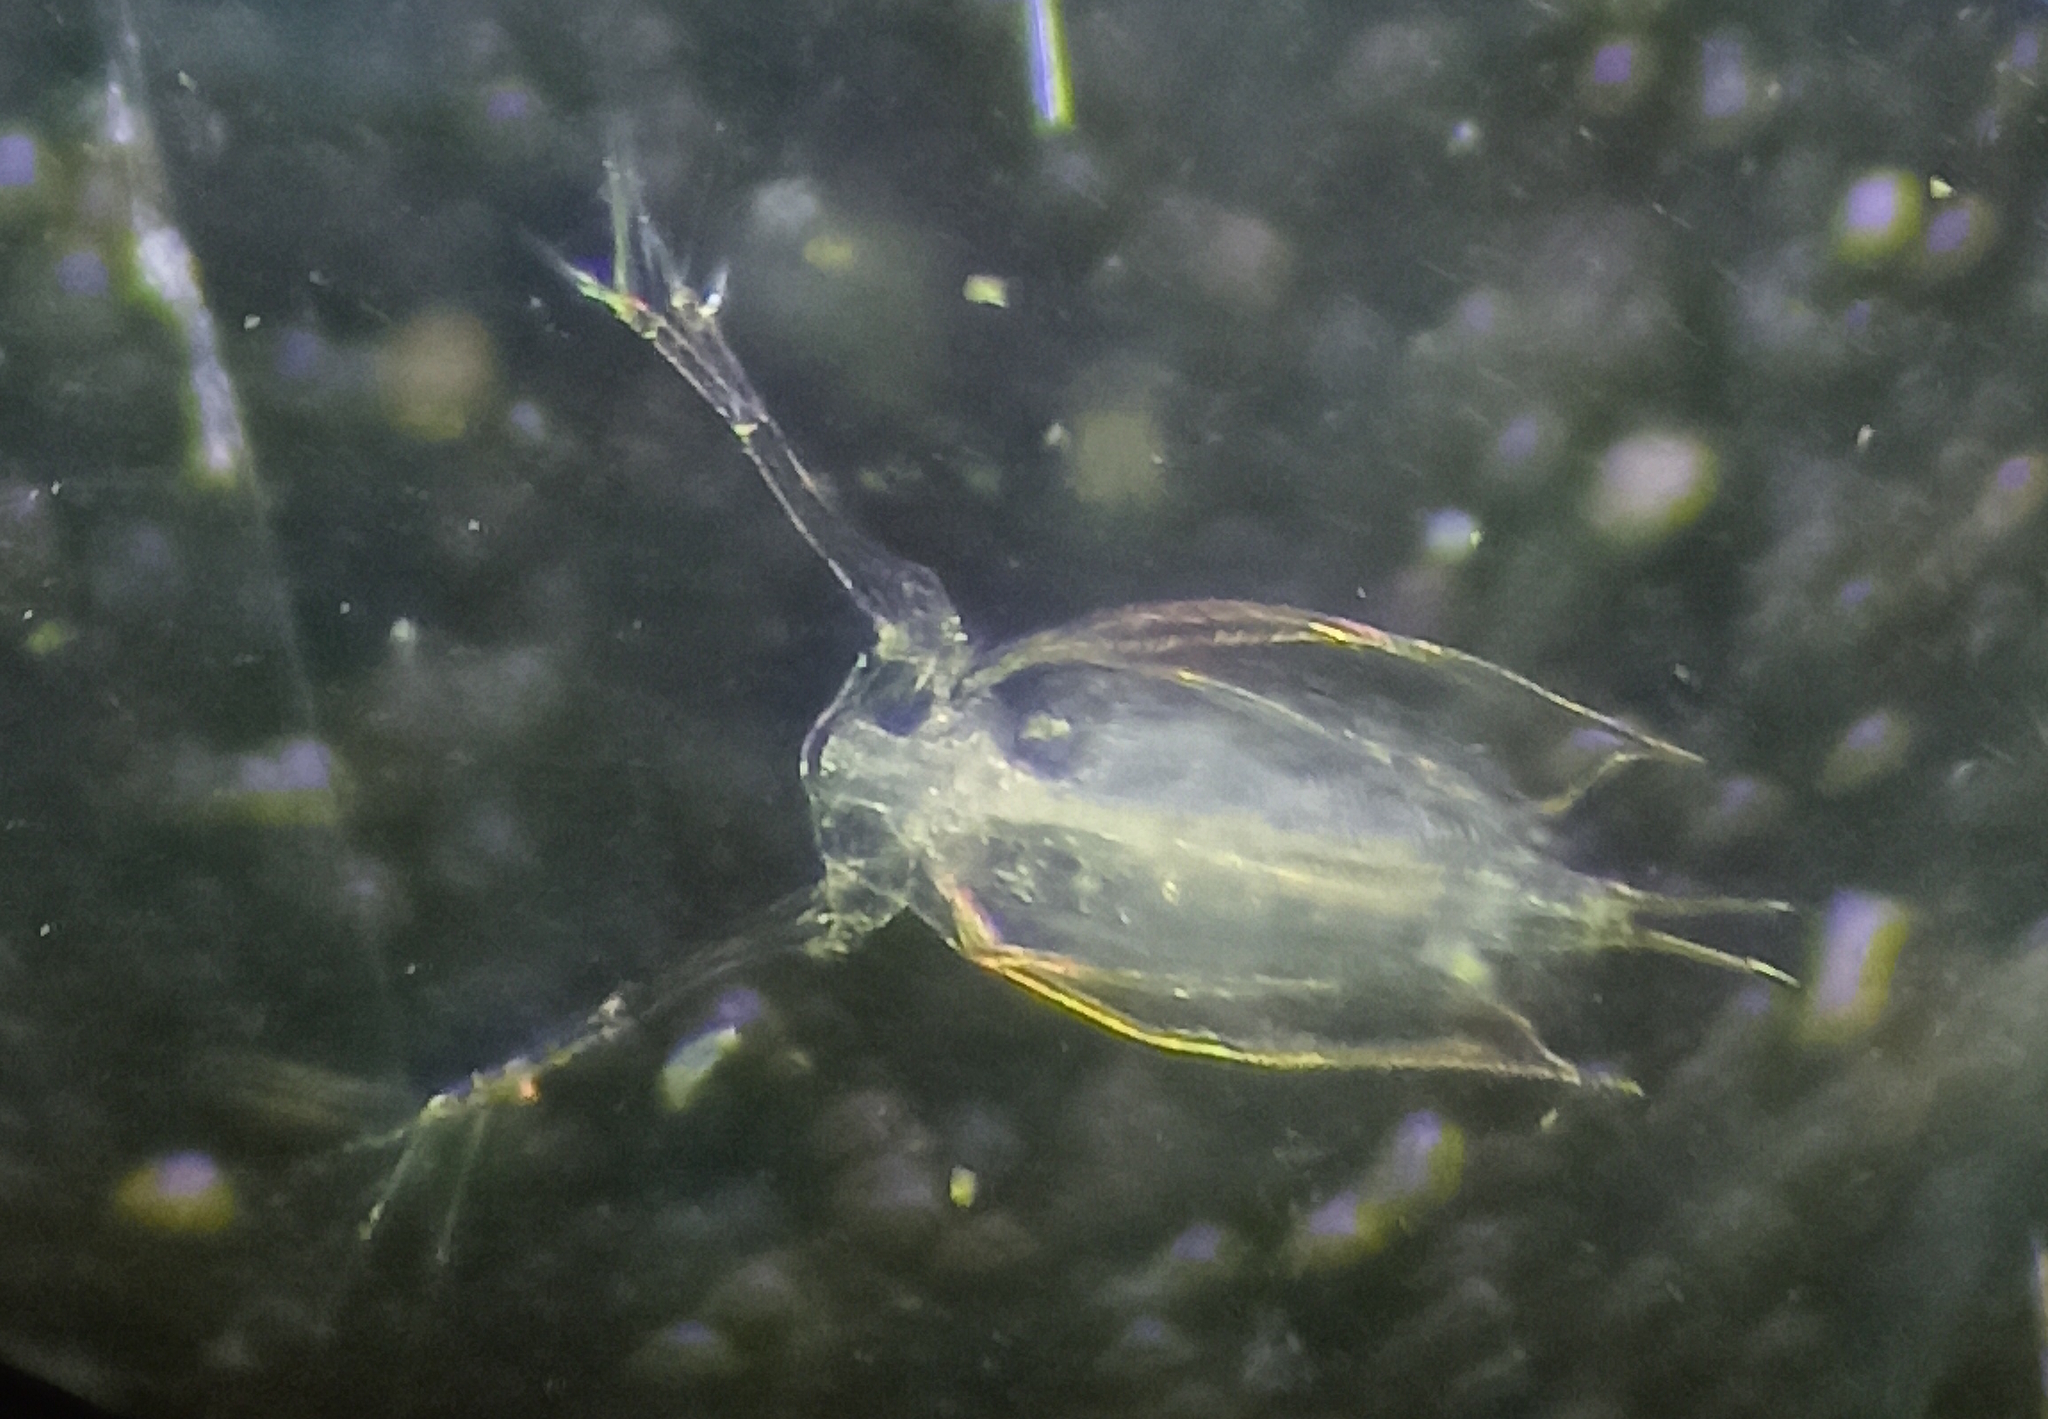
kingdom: Animalia
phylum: Arthropoda
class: Branchiopoda
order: Diplostraca
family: Sididae
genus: Penilia
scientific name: Penilia avirostris
